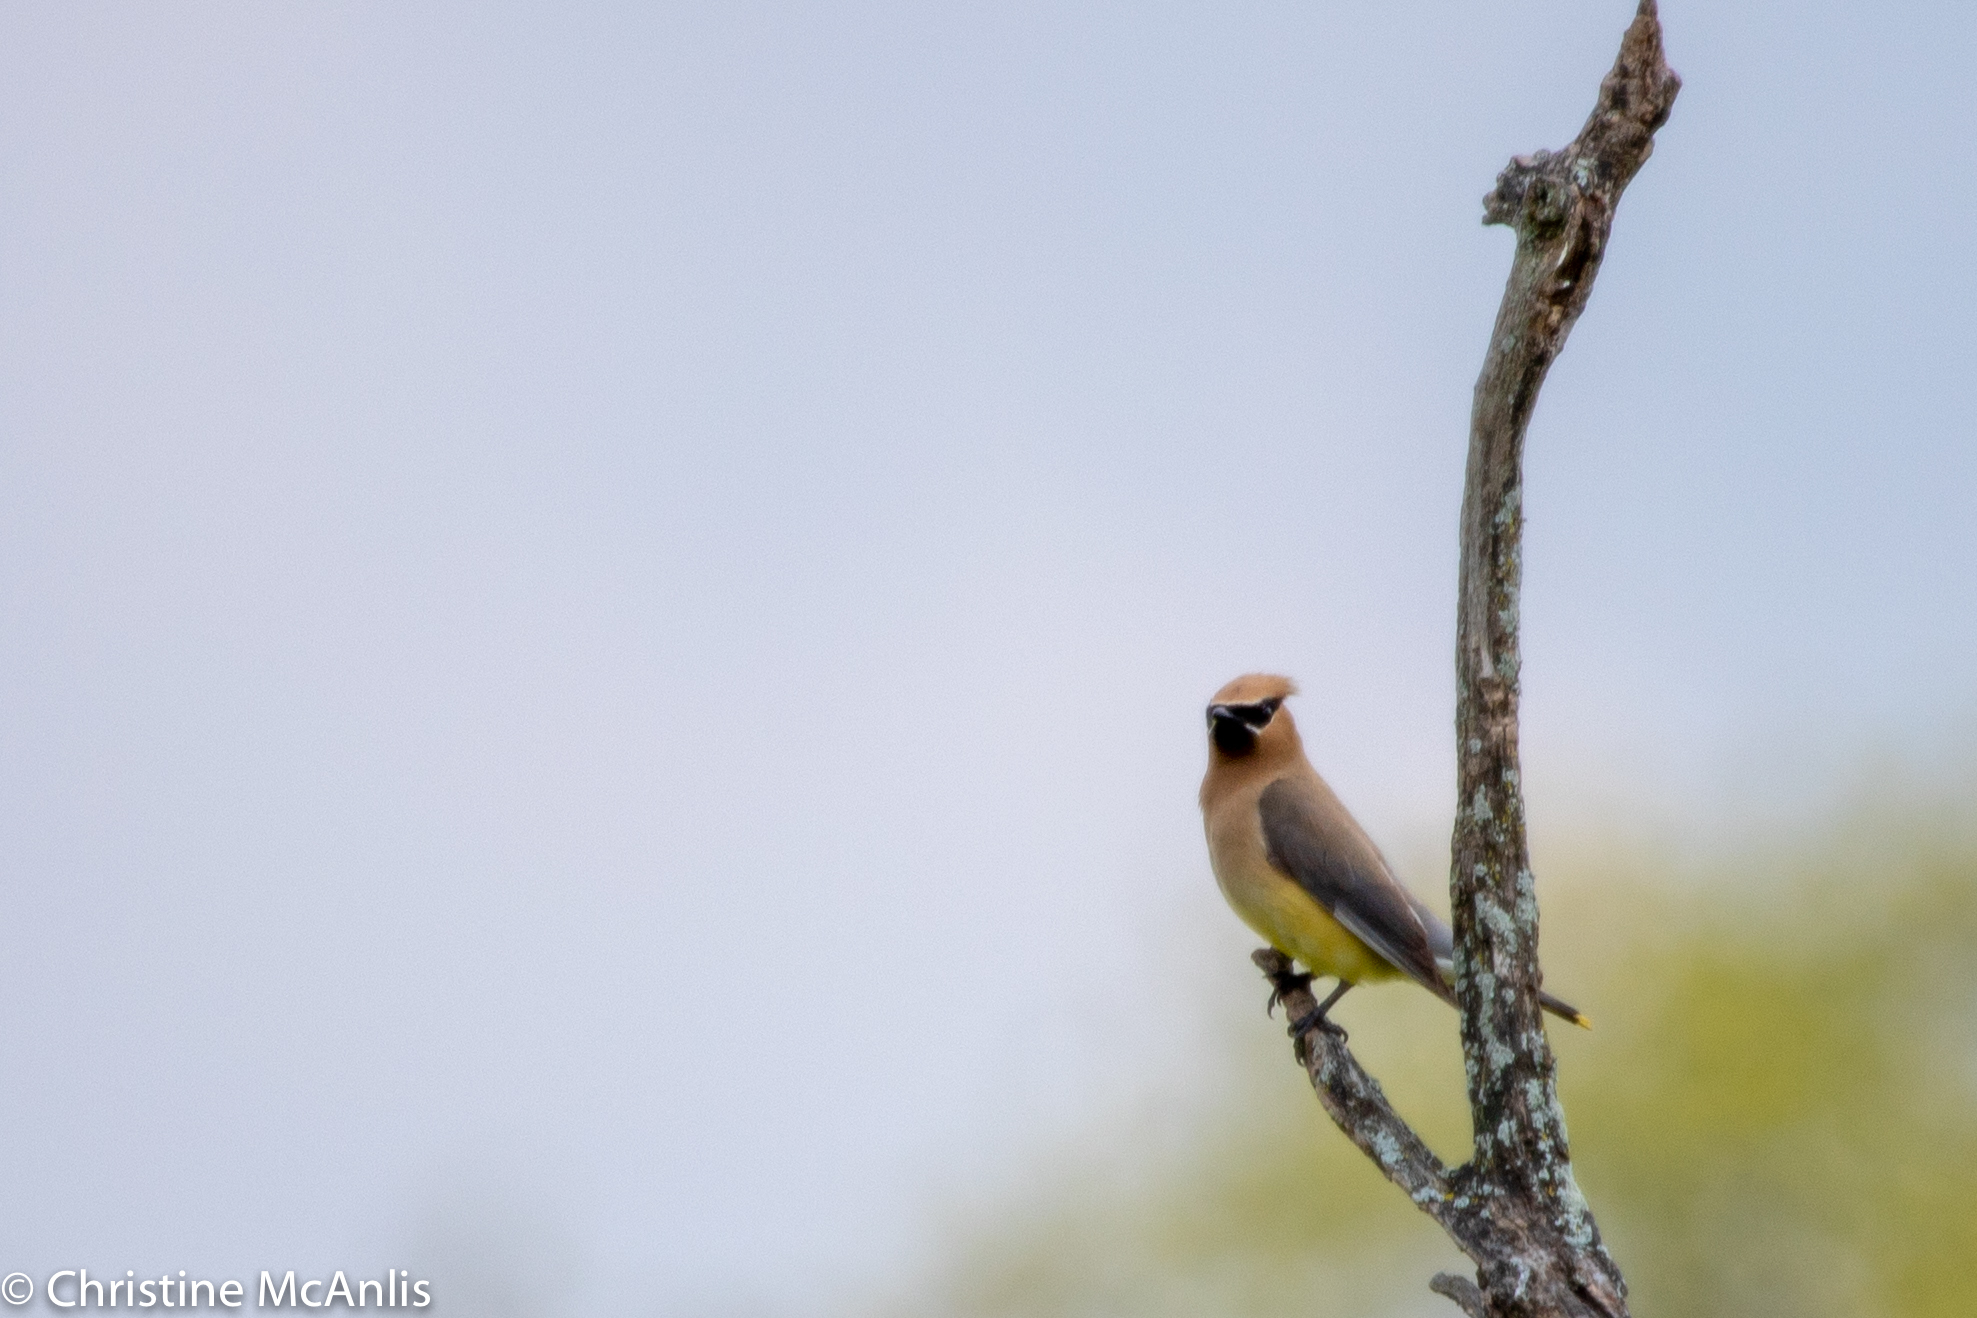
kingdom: Animalia
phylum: Chordata
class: Aves
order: Passeriformes
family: Bombycillidae
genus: Bombycilla
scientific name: Bombycilla cedrorum
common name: Cedar waxwing
